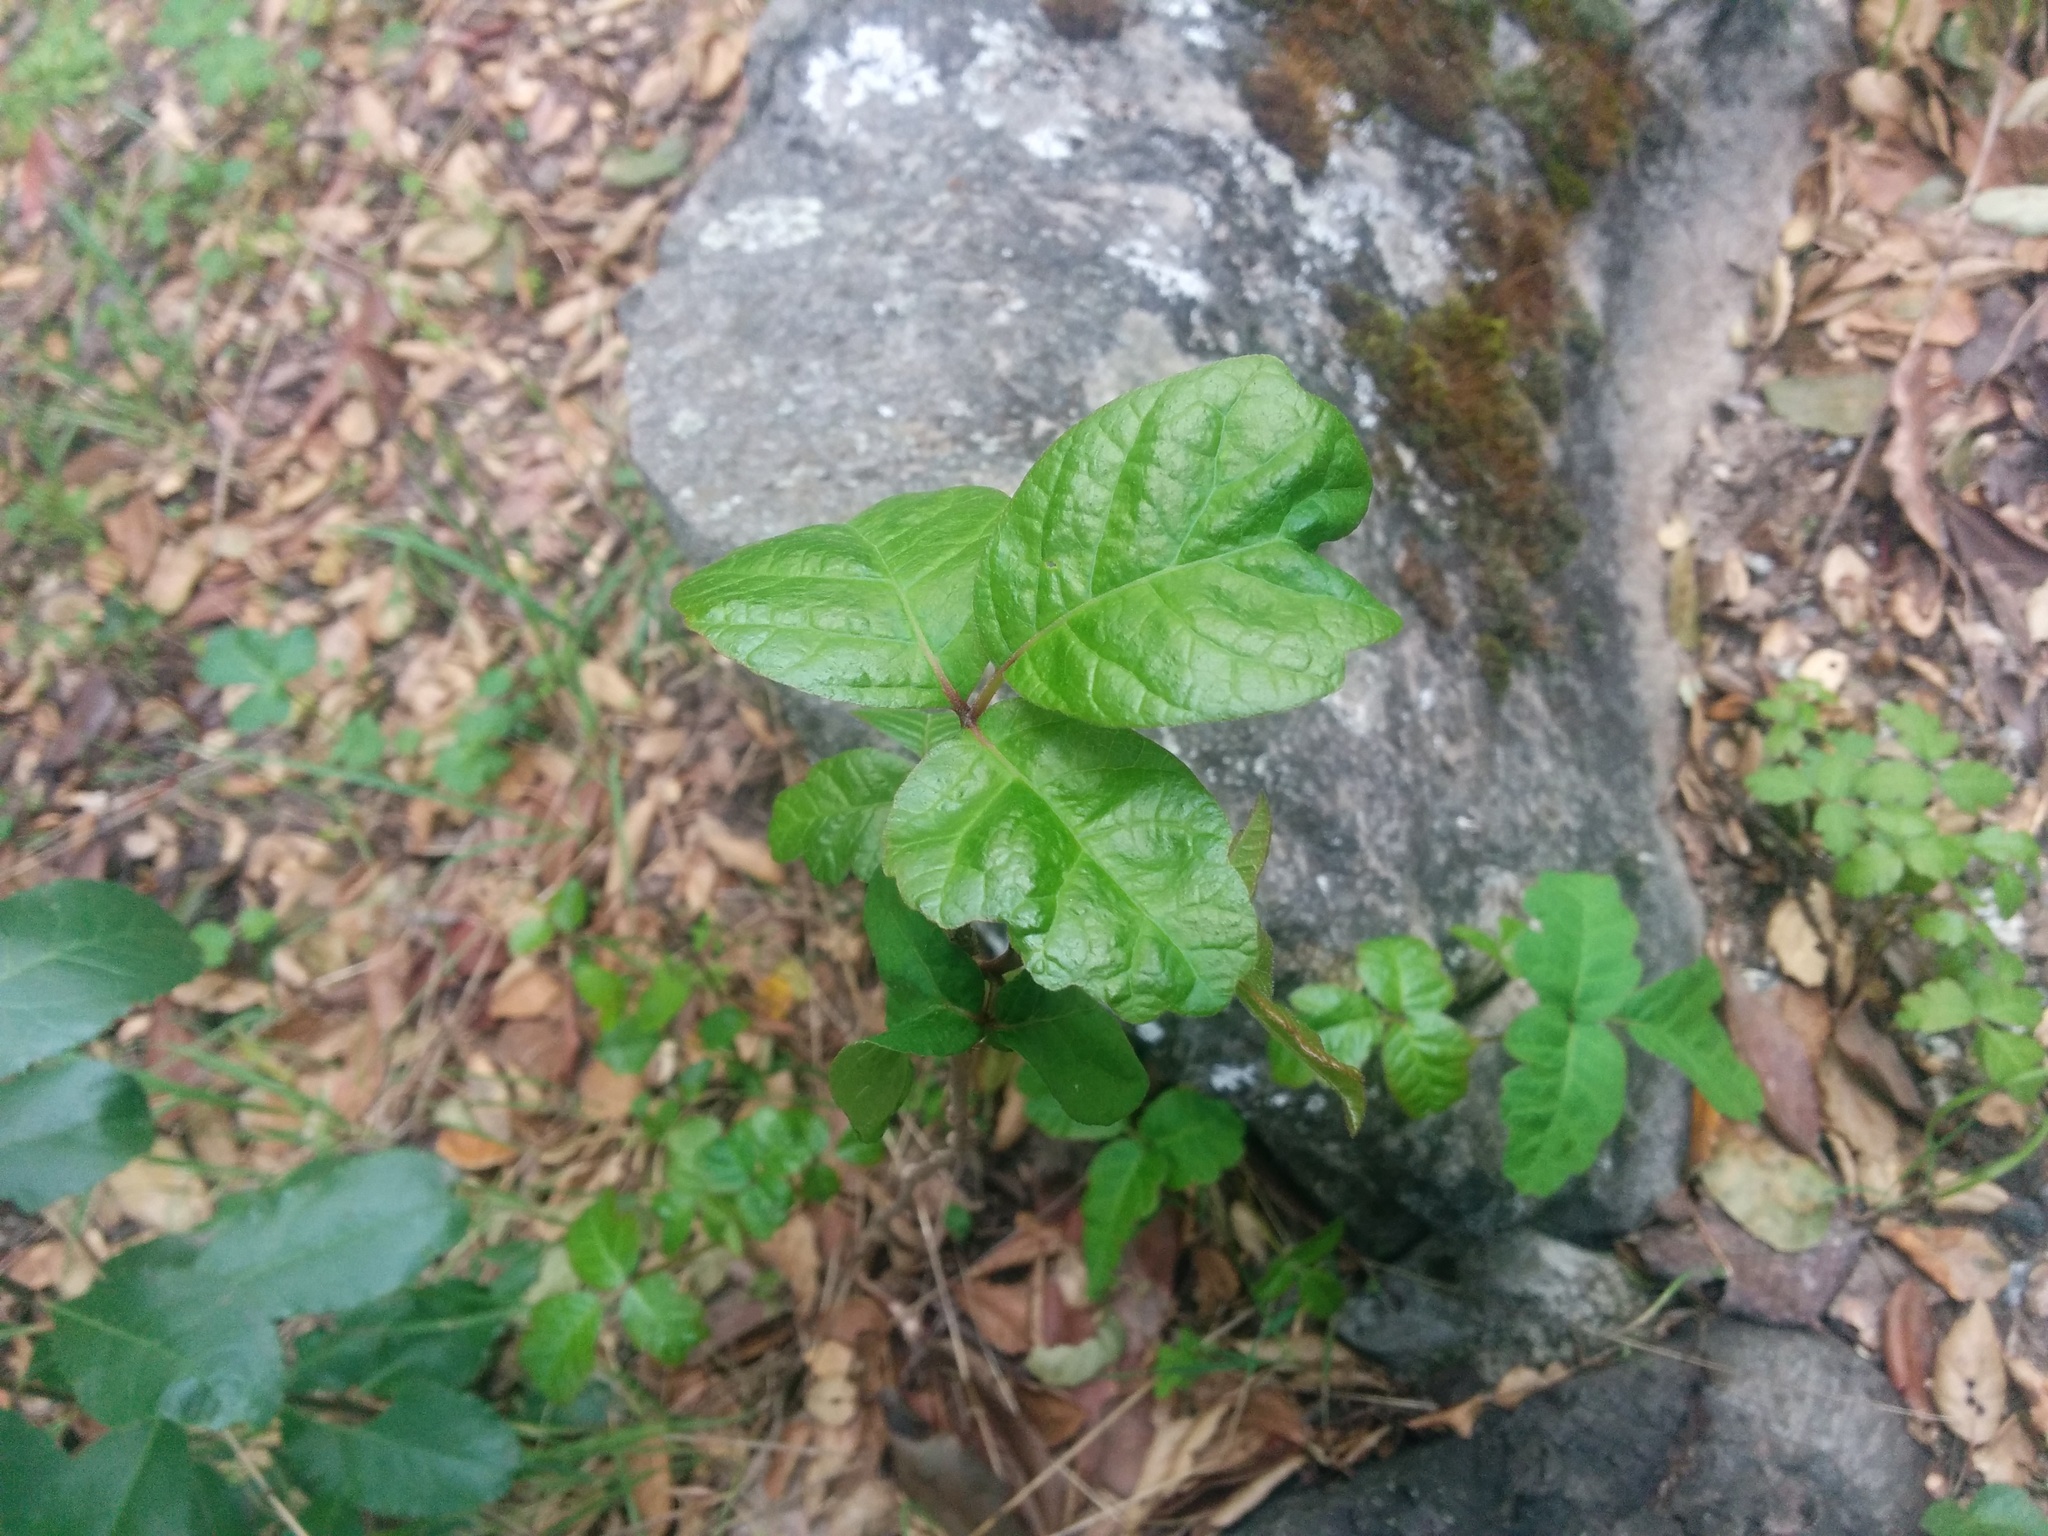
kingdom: Plantae
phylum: Tracheophyta
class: Magnoliopsida
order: Sapindales
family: Anacardiaceae
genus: Toxicodendron
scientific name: Toxicodendron diversilobum
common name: Pacific poison-oak
